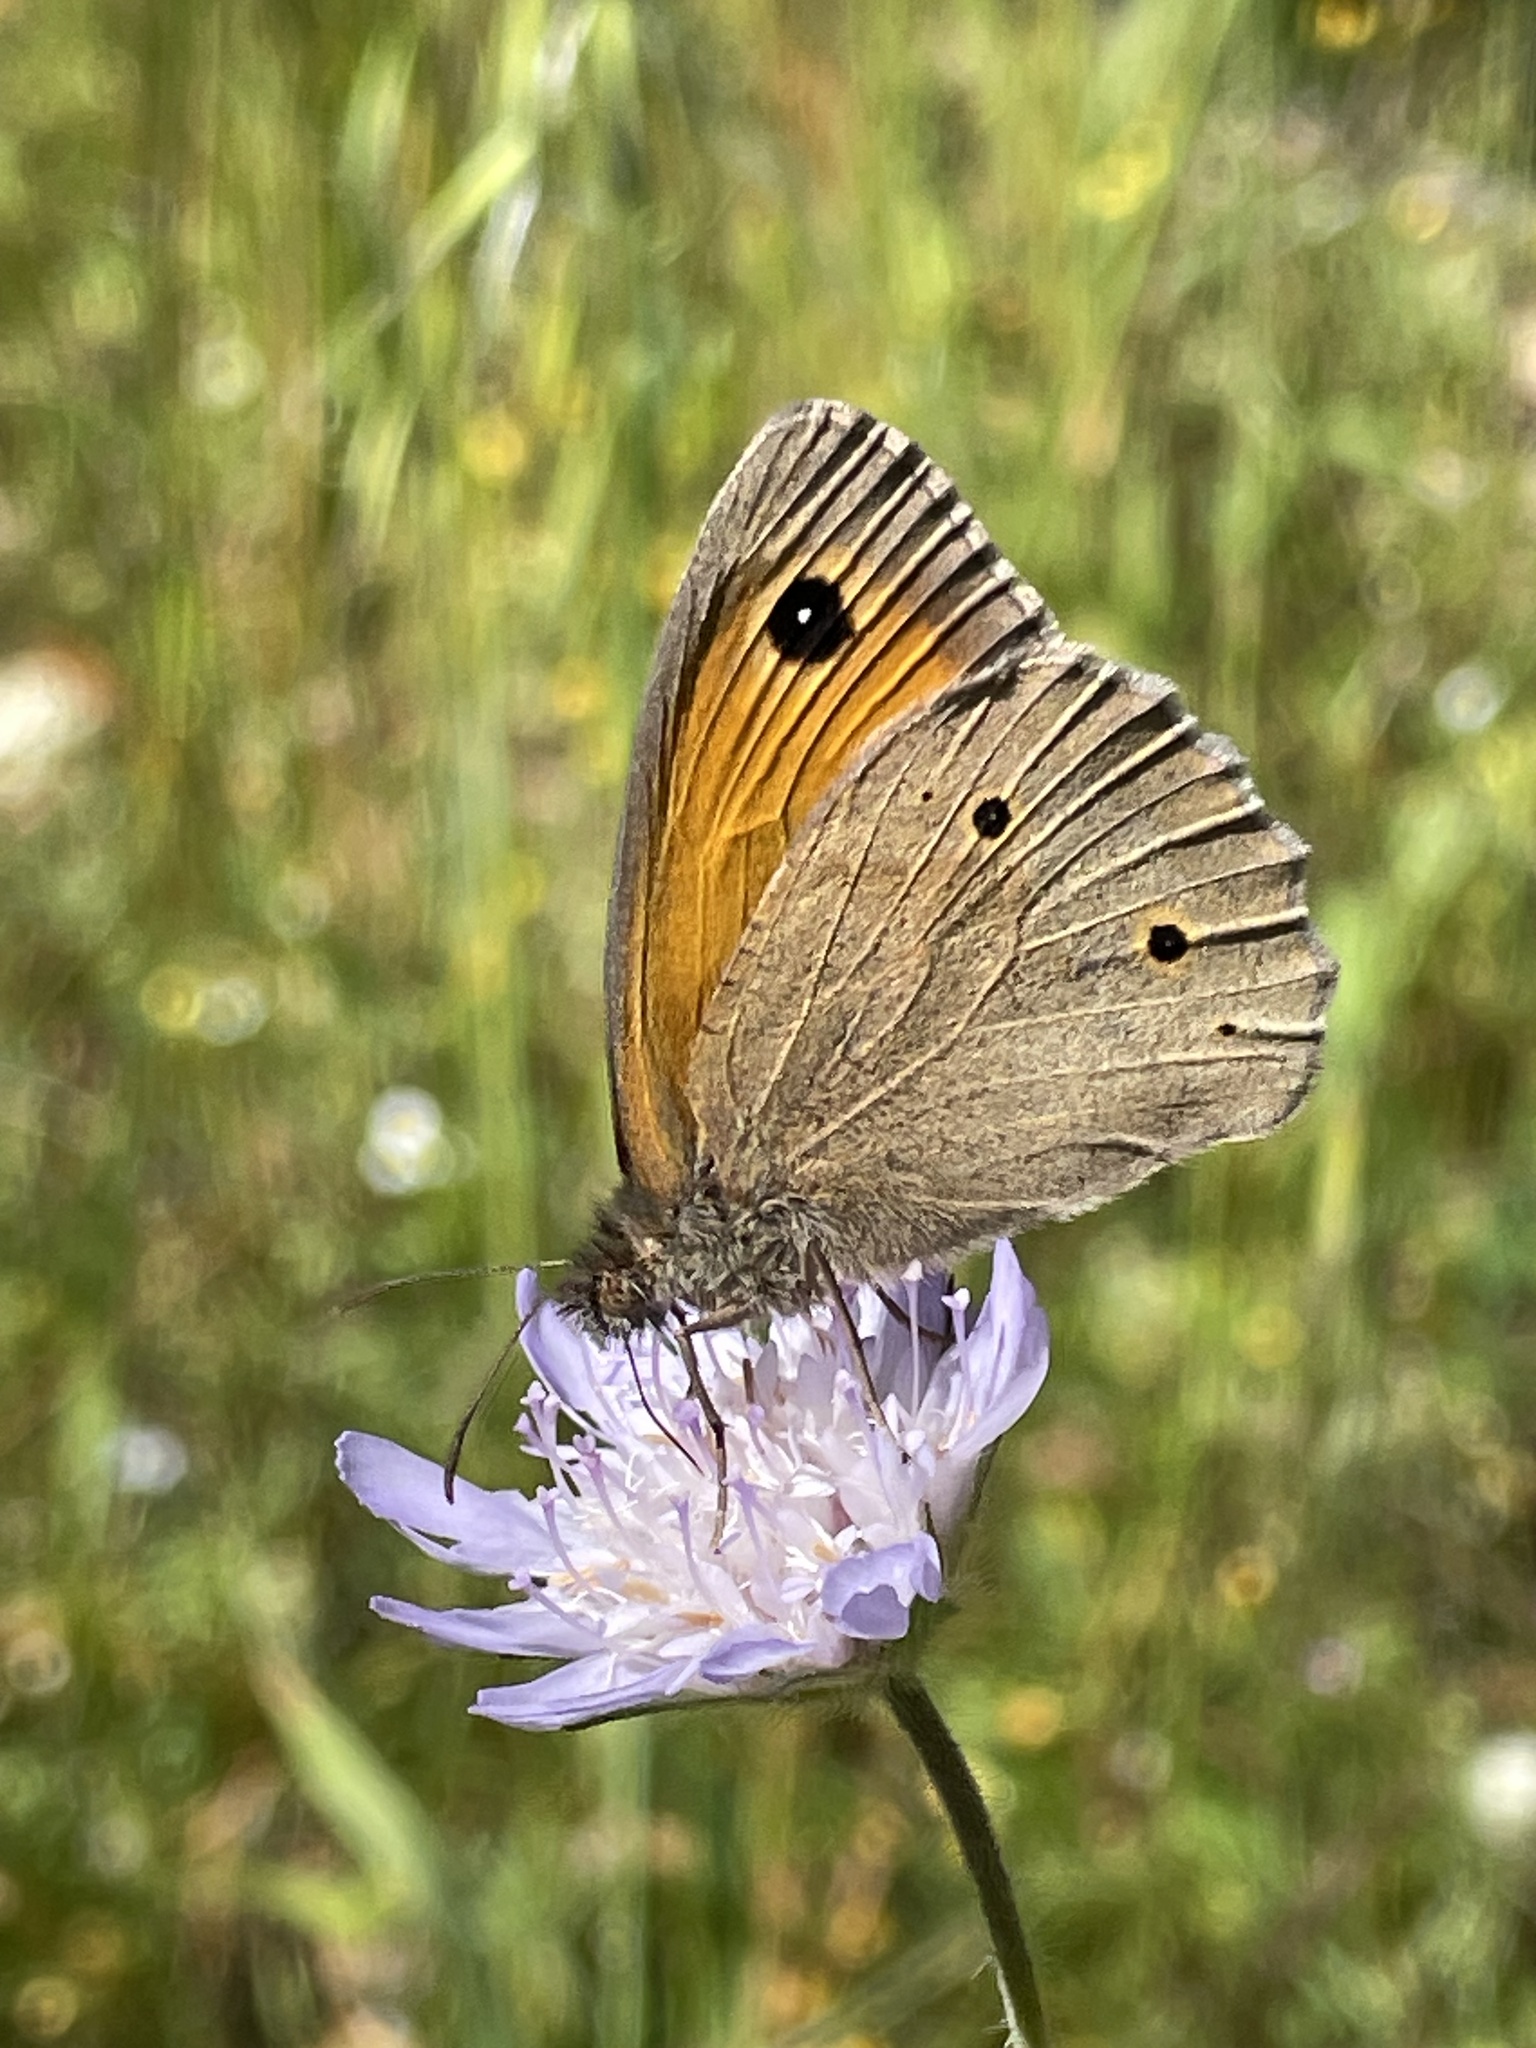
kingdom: Animalia
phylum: Arthropoda
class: Insecta
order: Lepidoptera
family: Nymphalidae
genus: Maniola
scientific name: Maniola jurtina
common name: Meadow brown
